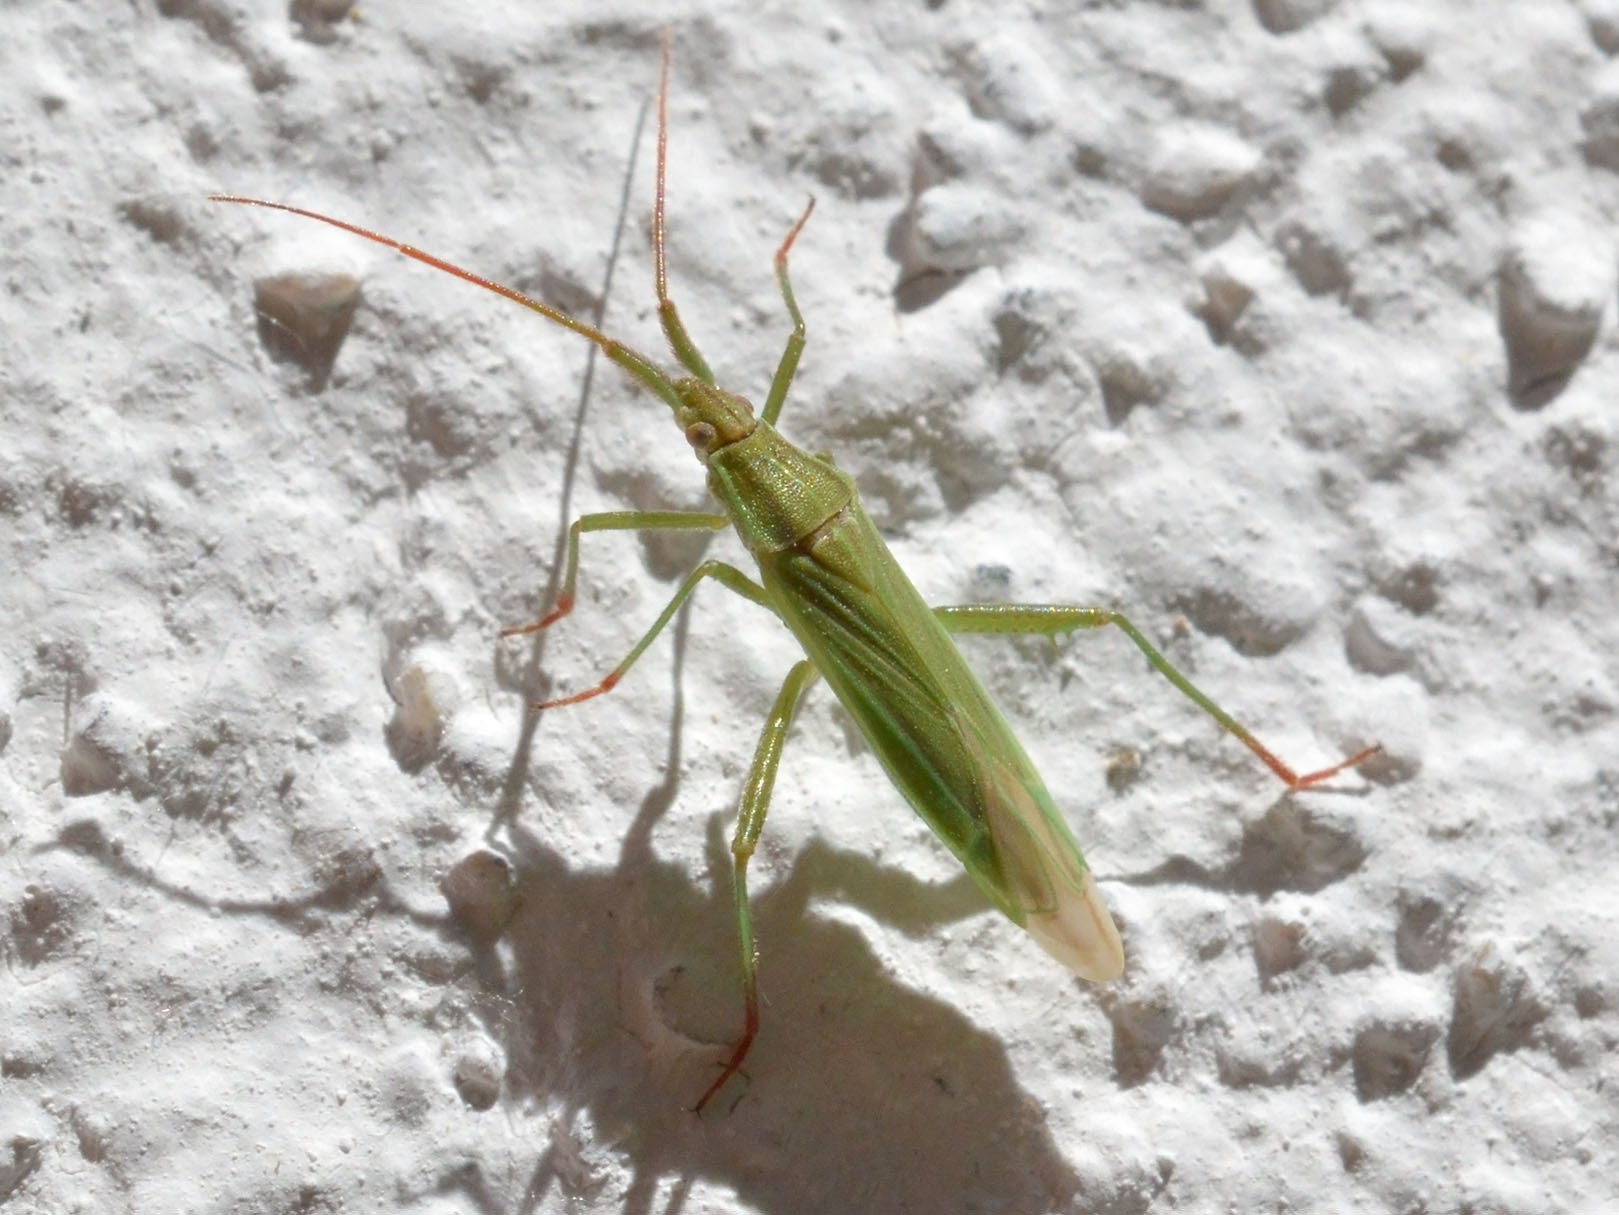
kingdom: Animalia
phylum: Arthropoda
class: Insecta
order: Hemiptera
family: Miridae
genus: Stenodema
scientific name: Stenodema calcarata
